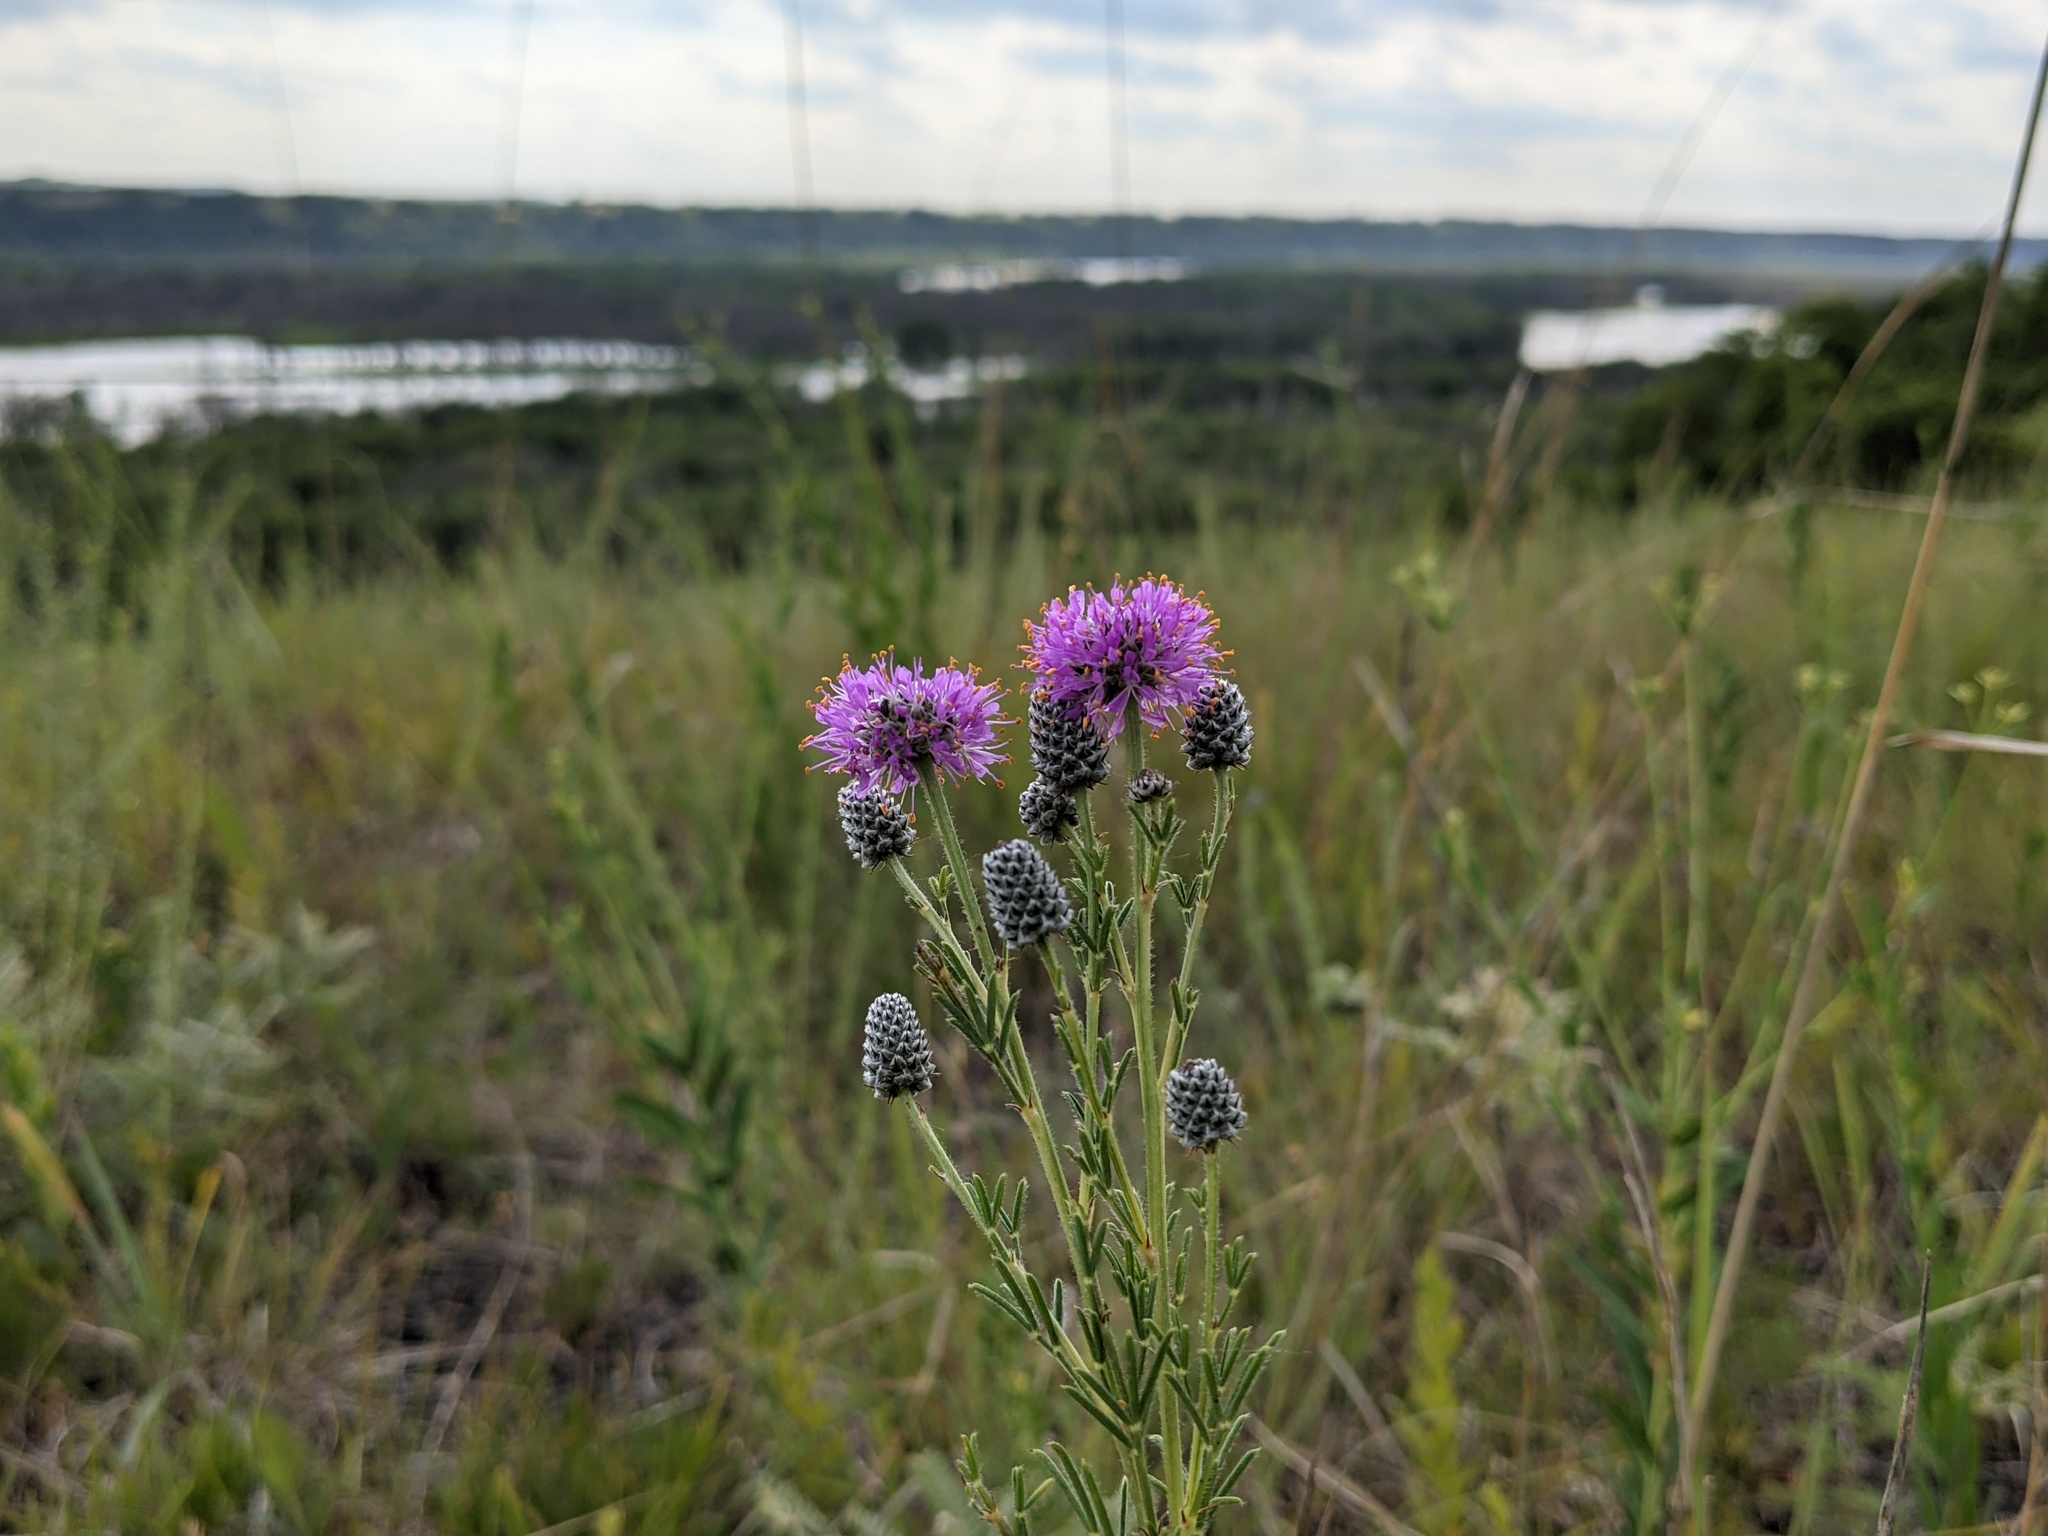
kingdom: Plantae
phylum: Tracheophyta
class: Magnoliopsida
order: Fabales
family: Fabaceae
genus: Dalea
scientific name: Dalea purpurea
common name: Purple prairie-clover
